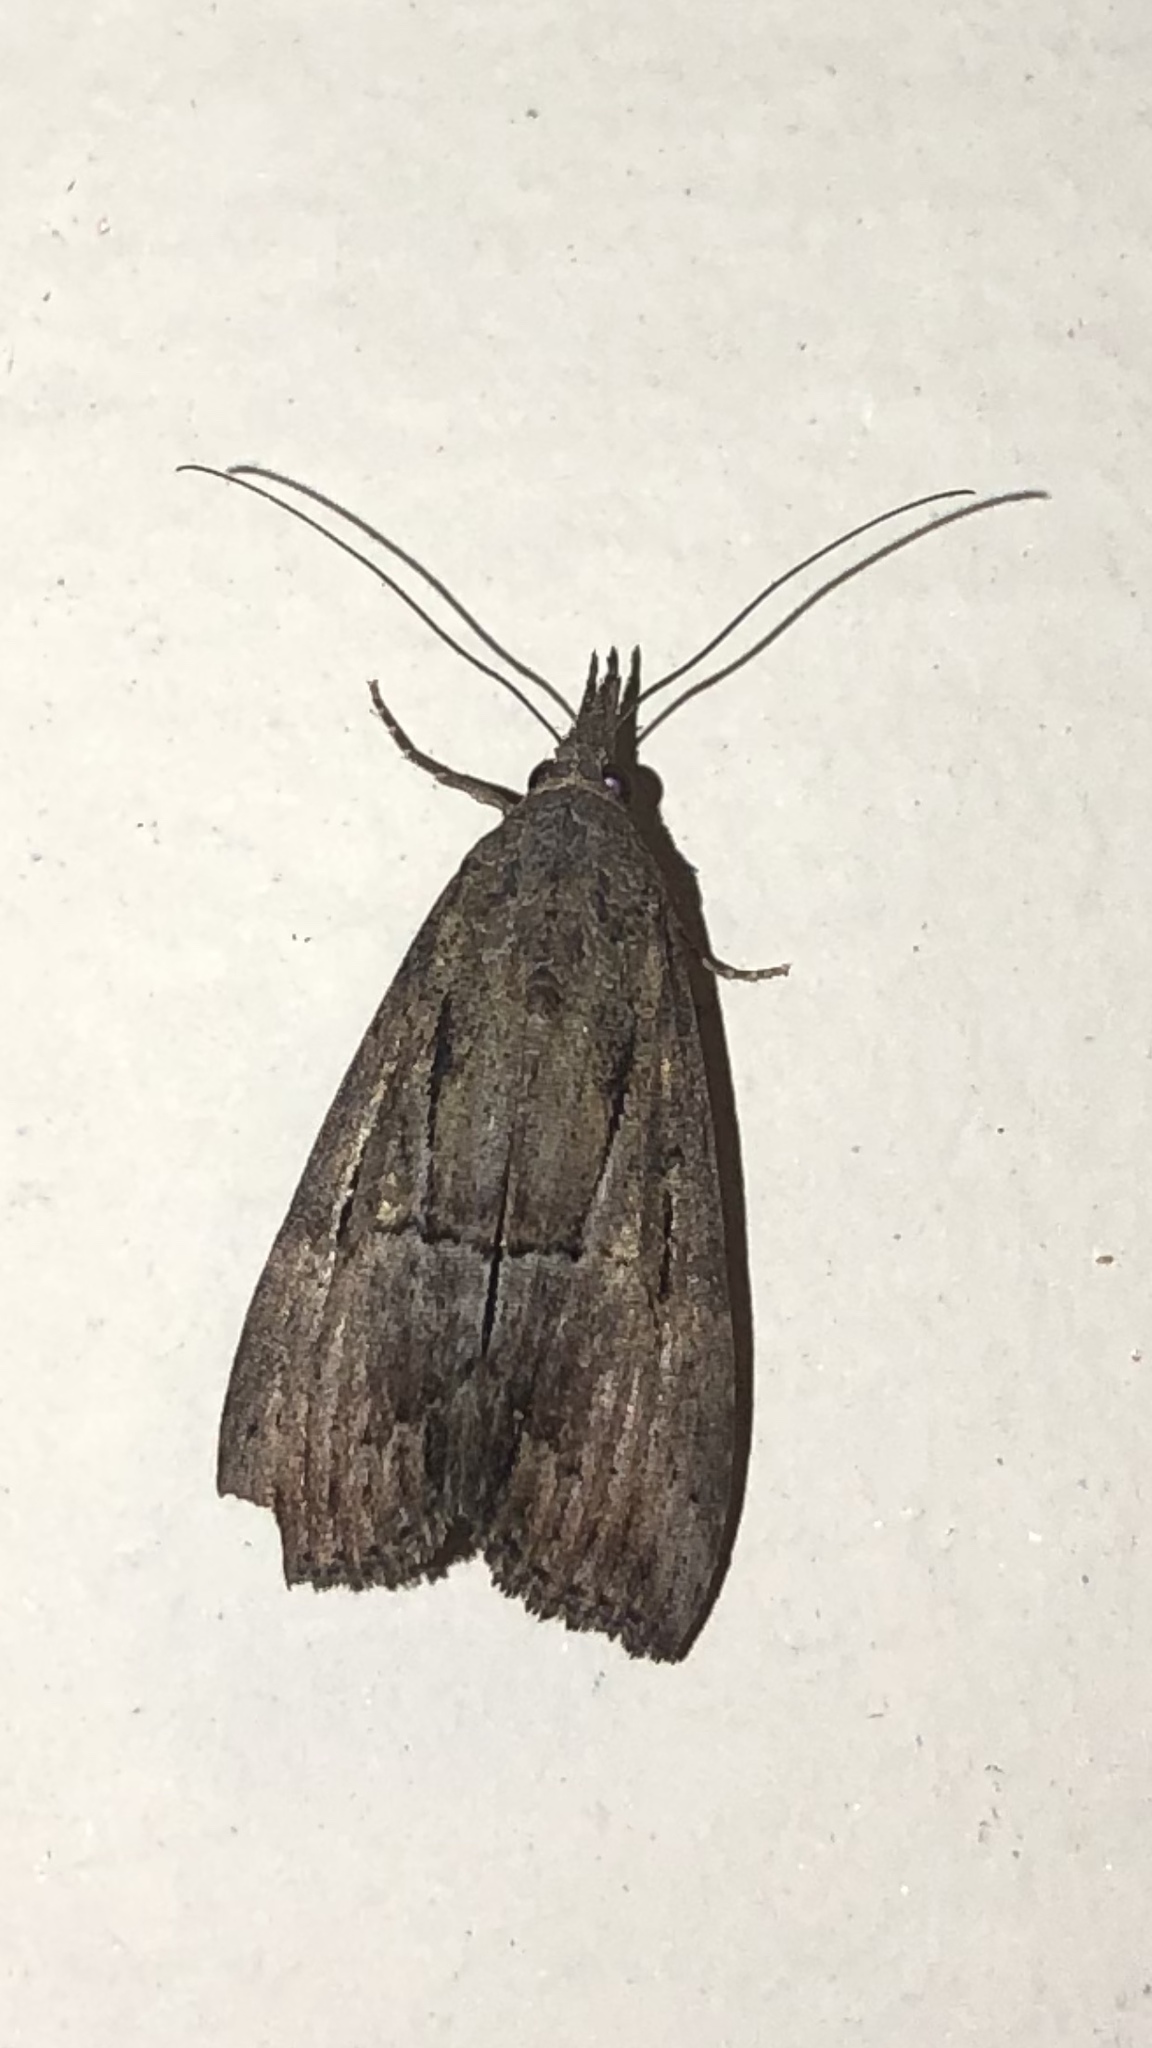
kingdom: Animalia
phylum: Arthropoda
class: Insecta
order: Lepidoptera
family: Erebidae
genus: Hypena
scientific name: Hypena scabra
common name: Green cloverworm
